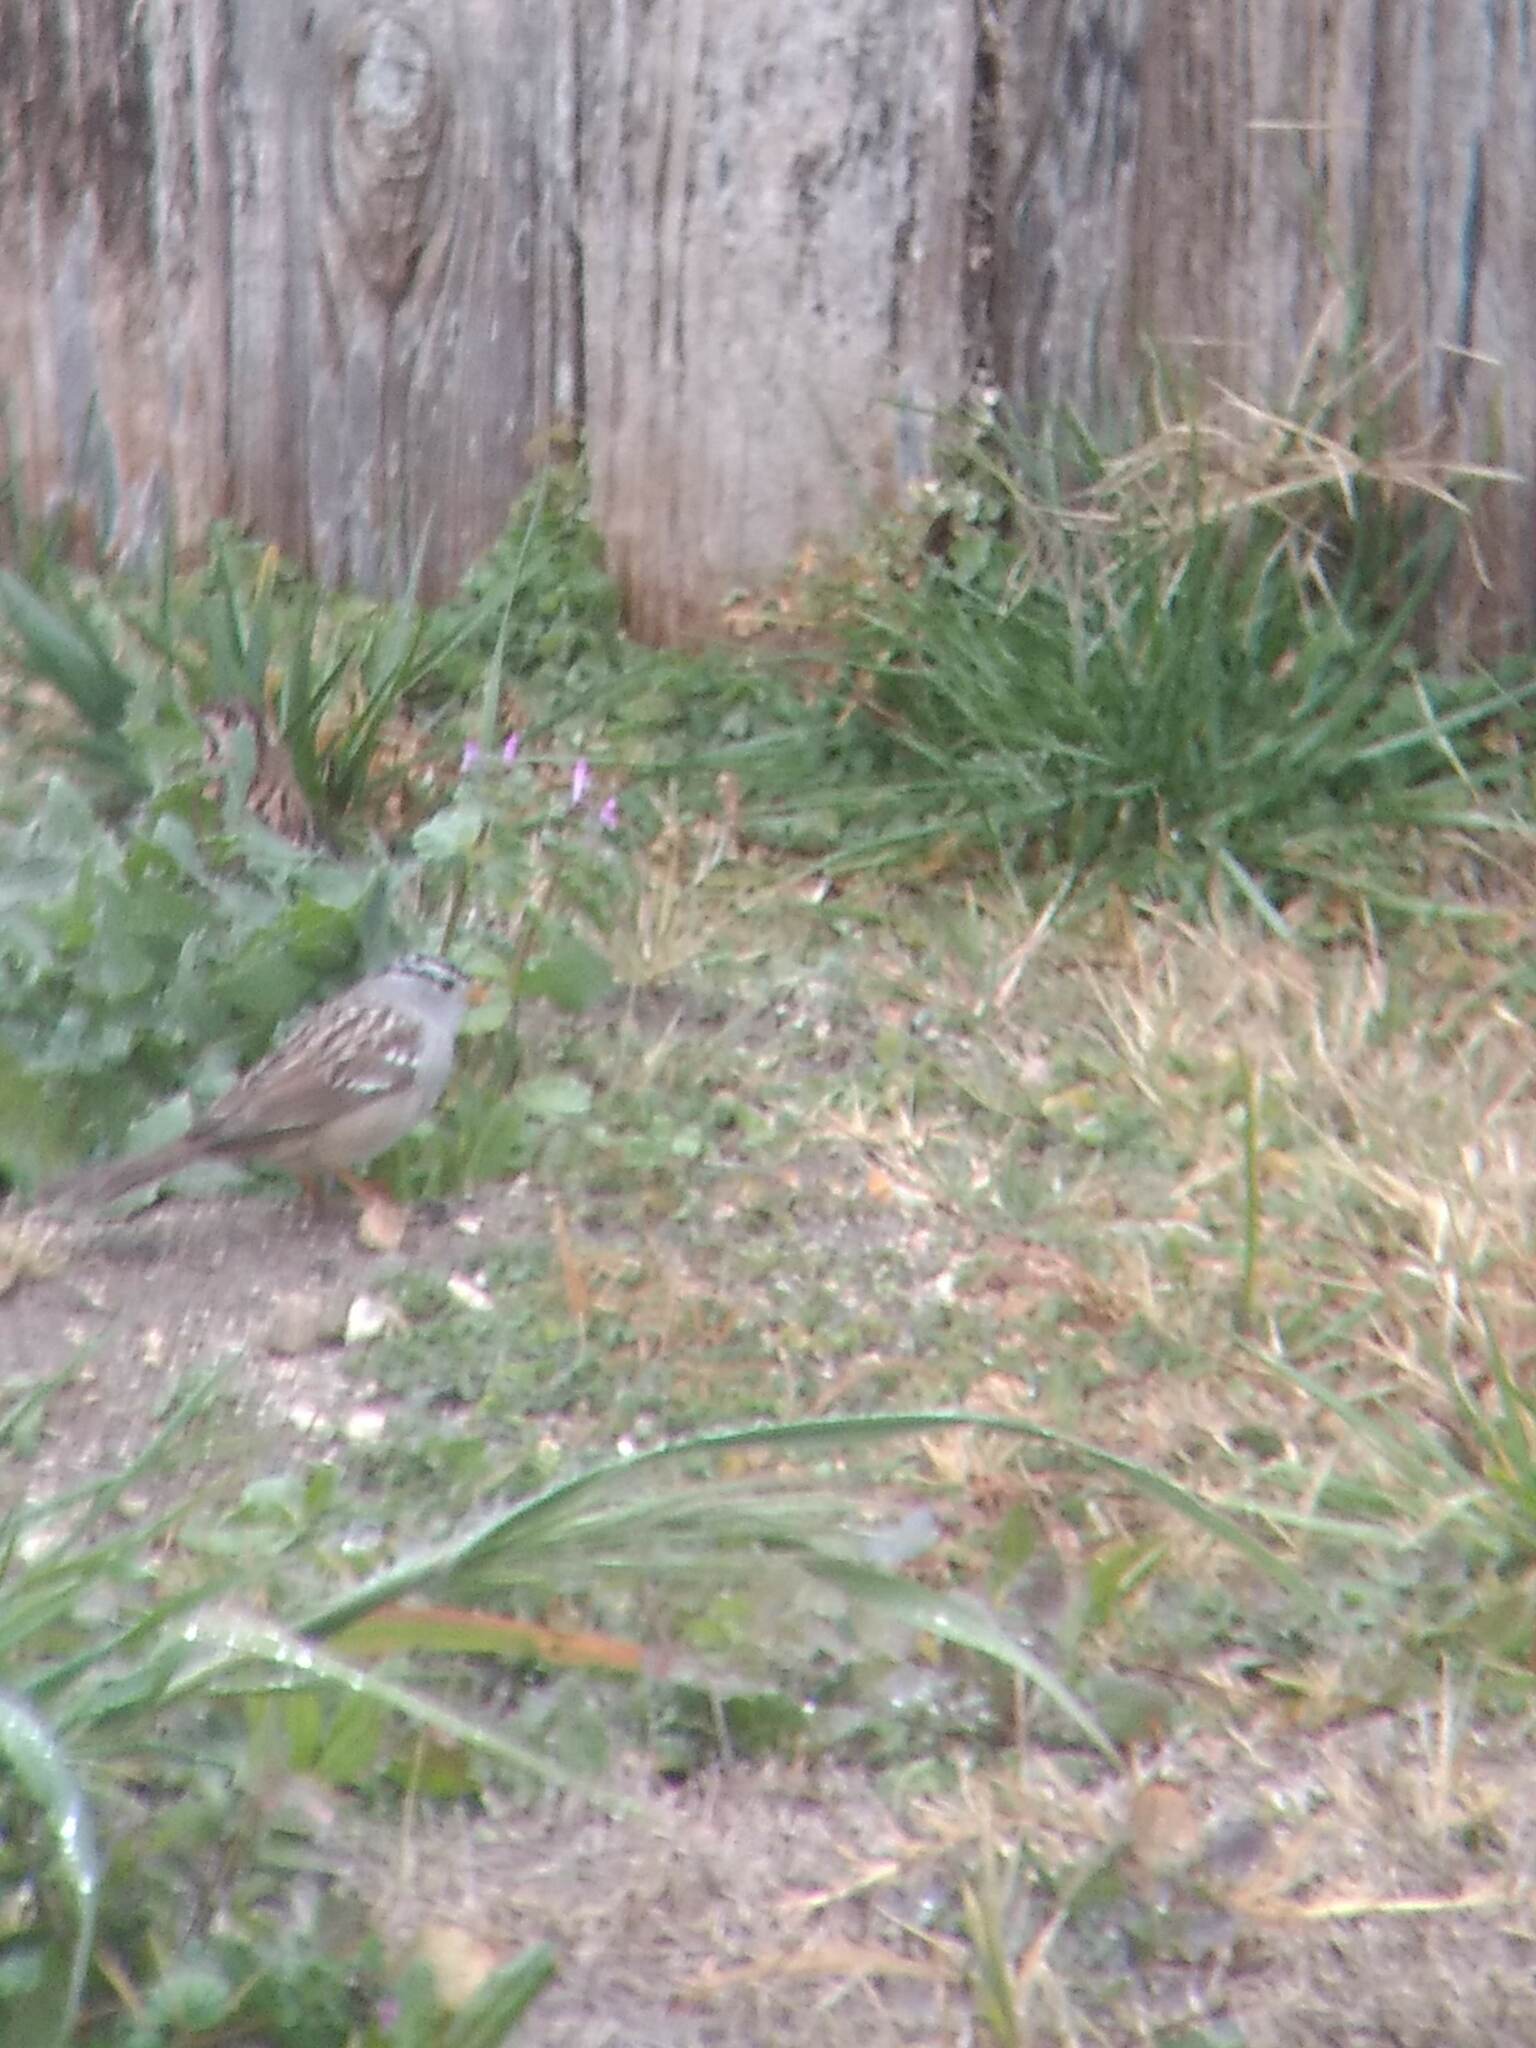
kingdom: Animalia
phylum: Chordata
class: Aves
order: Passeriformes
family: Passerellidae
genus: Zonotrichia
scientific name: Zonotrichia leucophrys
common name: White-crowned sparrow
